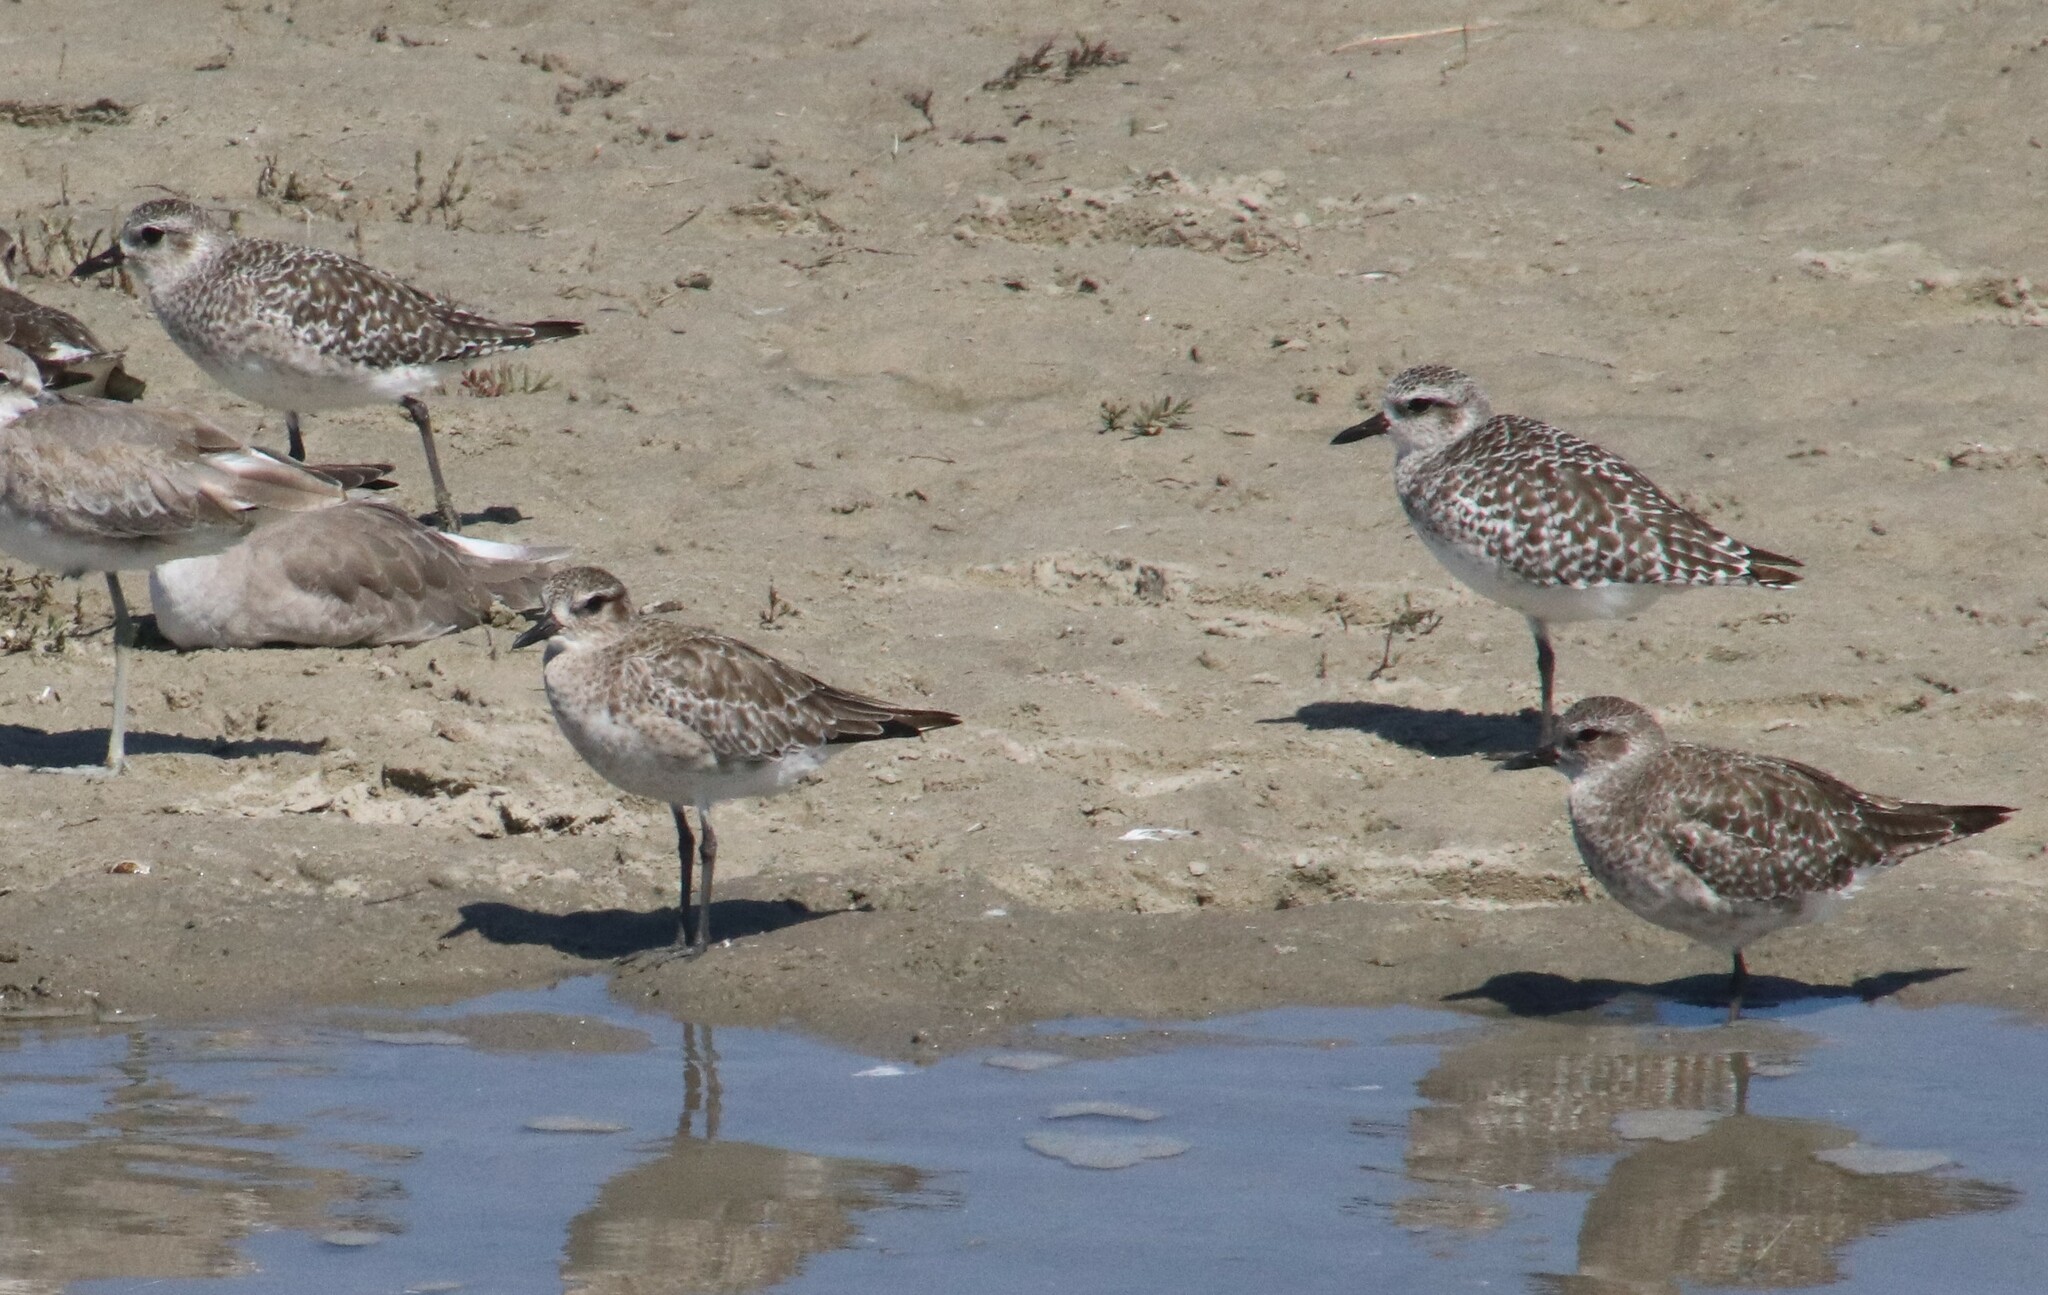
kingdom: Animalia
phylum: Chordata
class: Aves
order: Charadriiformes
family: Charadriidae
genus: Pluvialis
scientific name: Pluvialis squatarola
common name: Grey plover
